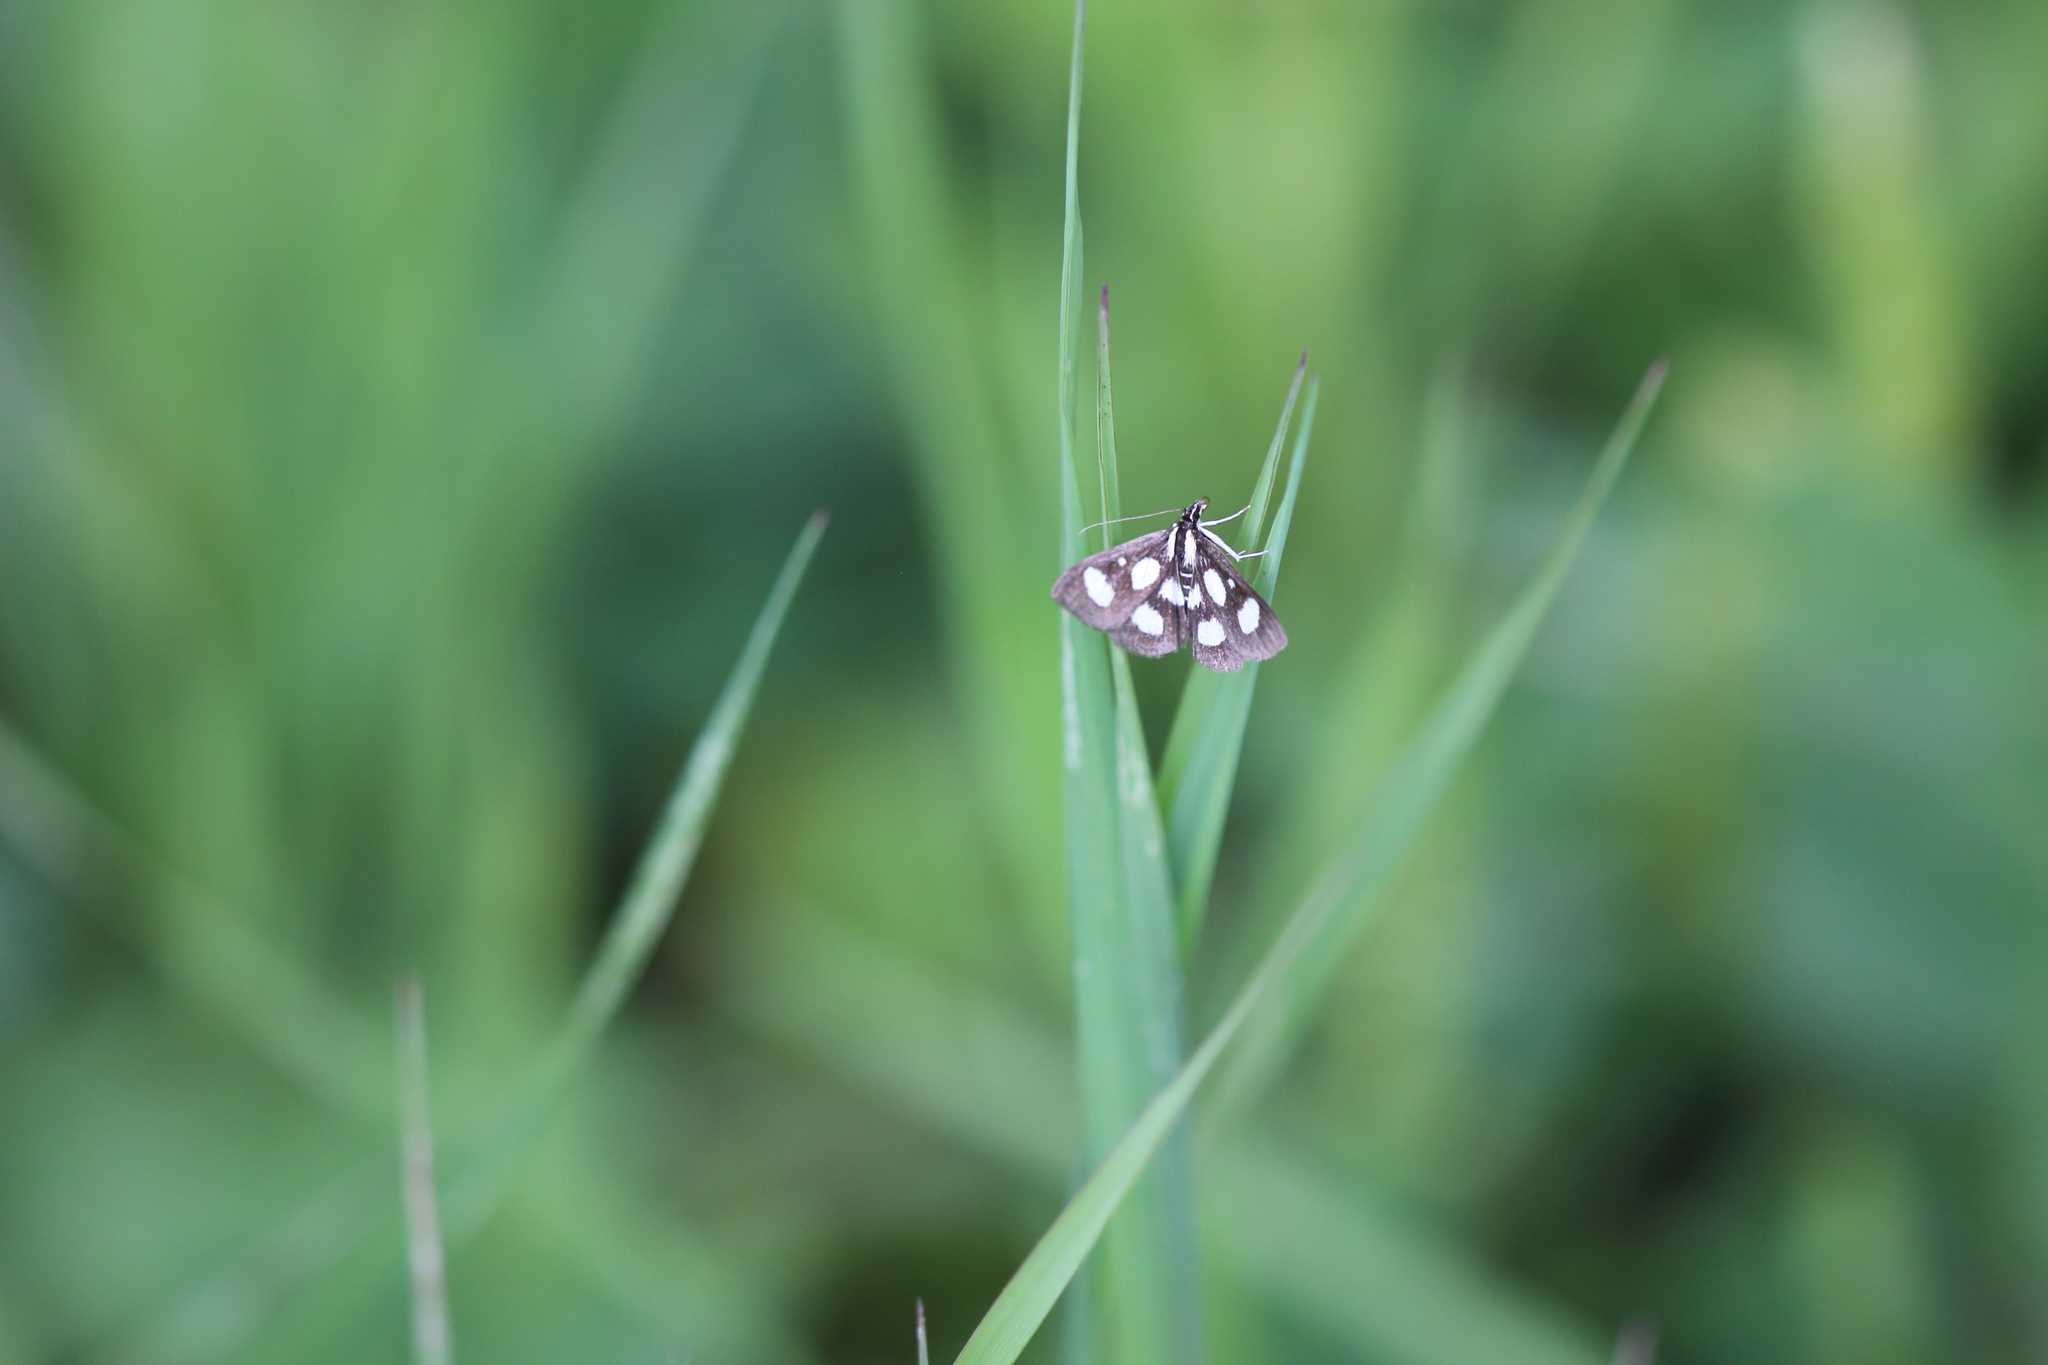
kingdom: Animalia
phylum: Arthropoda
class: Insecta
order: Lepidoptera
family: Crambidae
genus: Anania
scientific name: Anania funebris
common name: White-spotted sable moth
